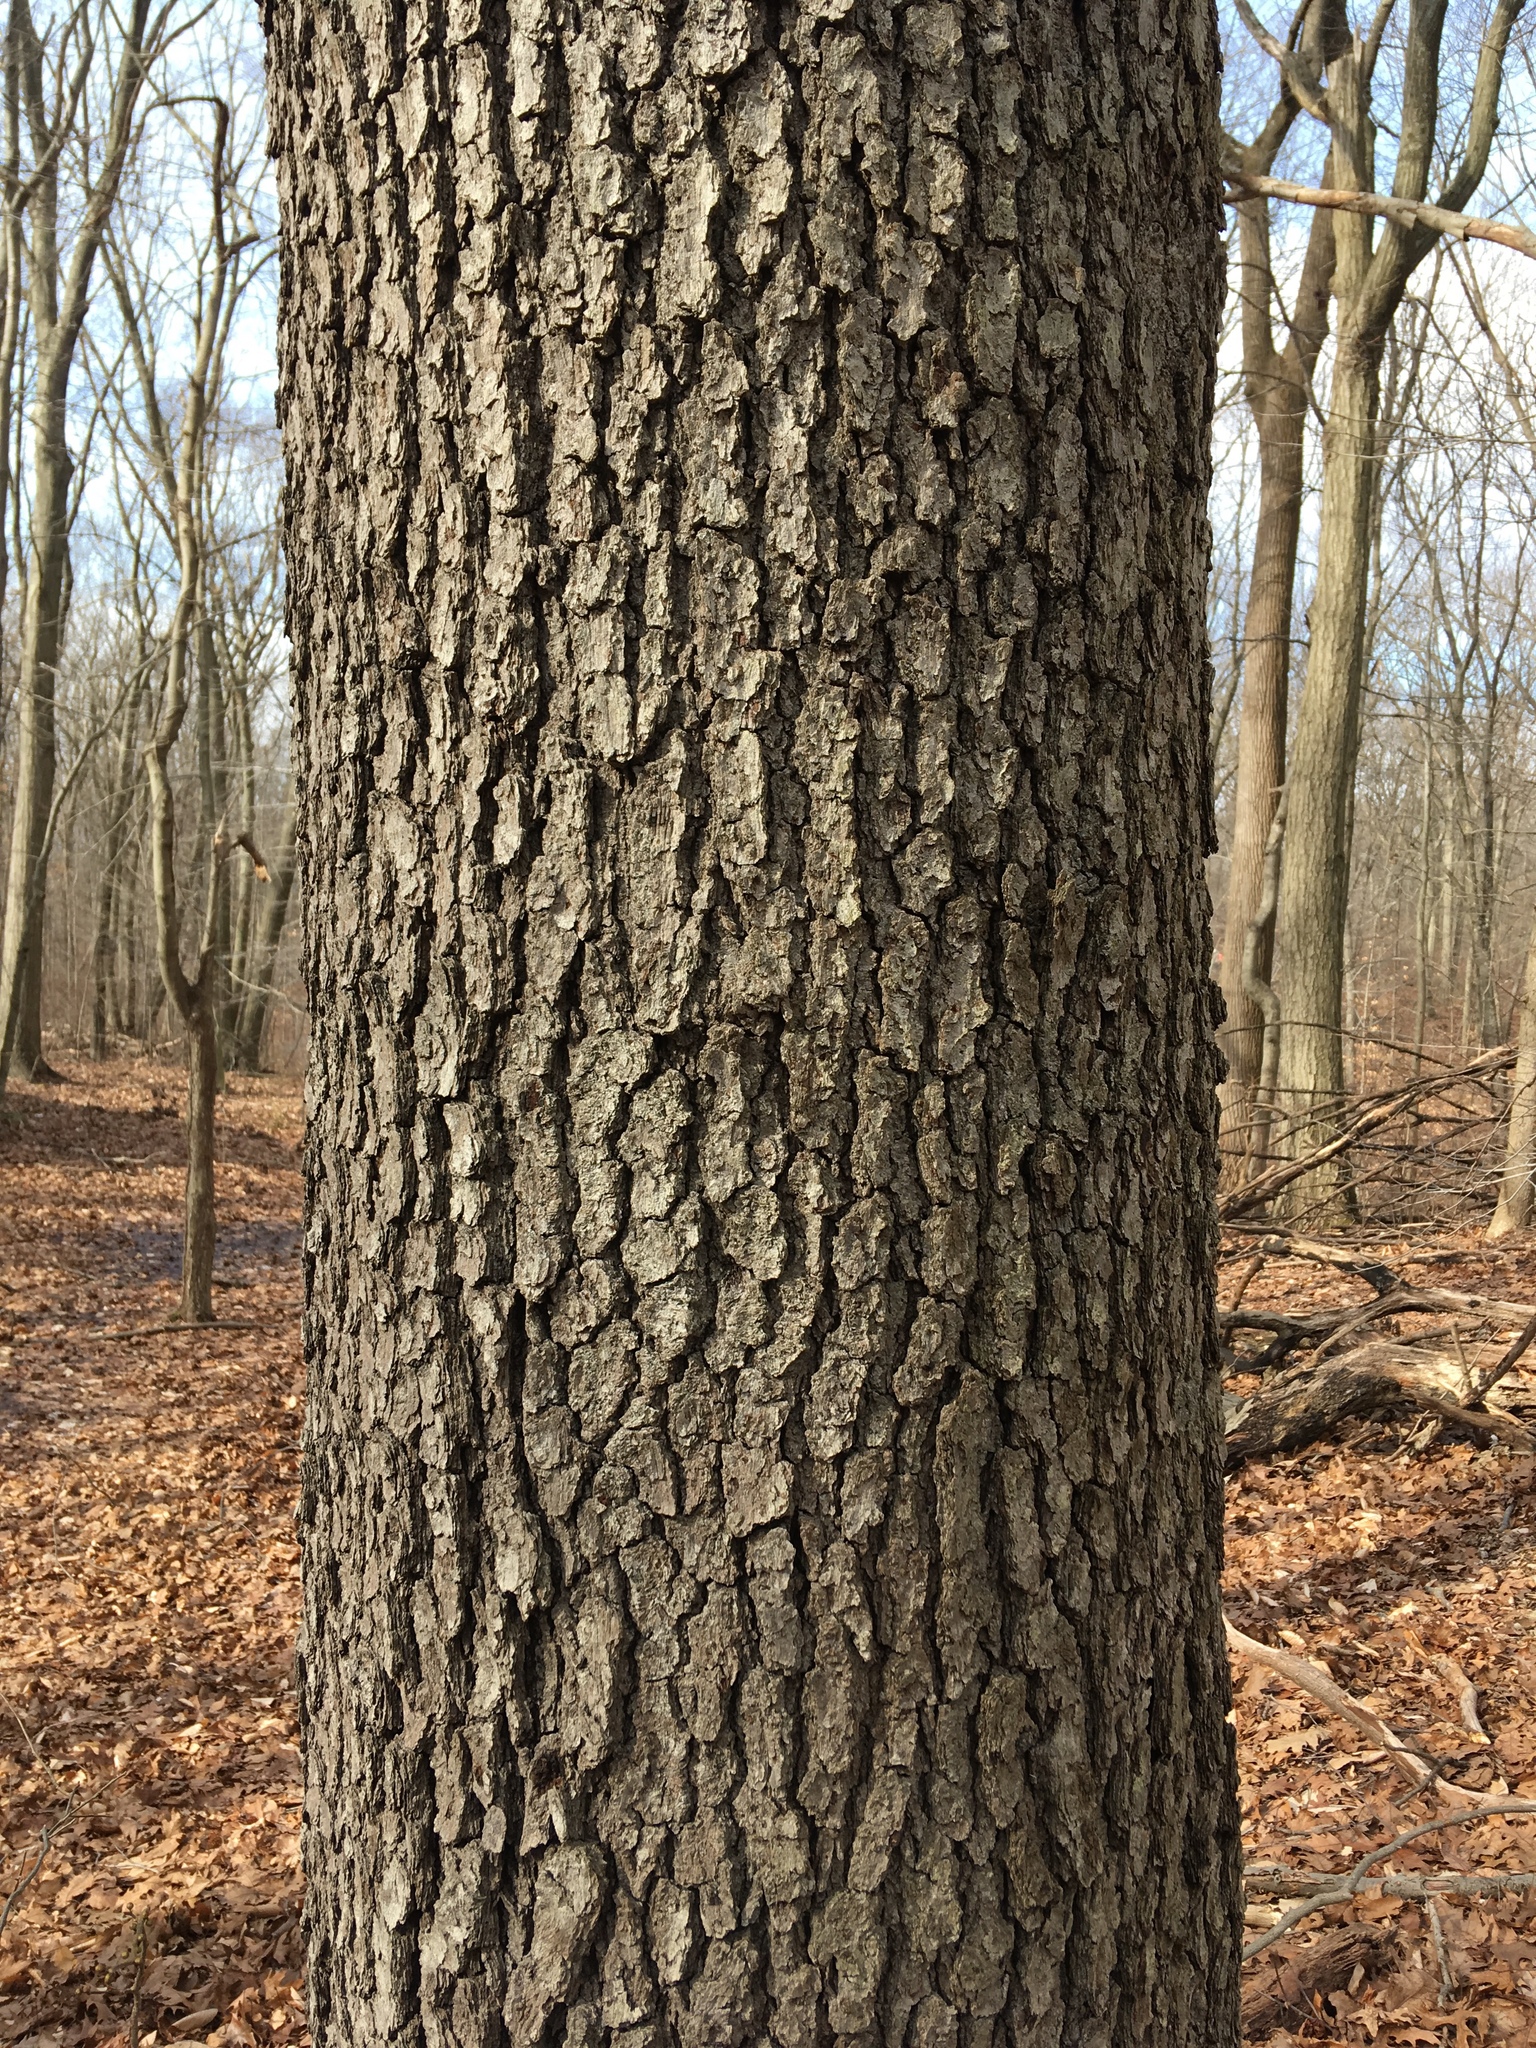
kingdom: Plantae
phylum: Tracheophyta
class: Magnoliopsida
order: Rosales
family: Rosaceae
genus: Prunus
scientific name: Prunus serotina
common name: Black cherry
